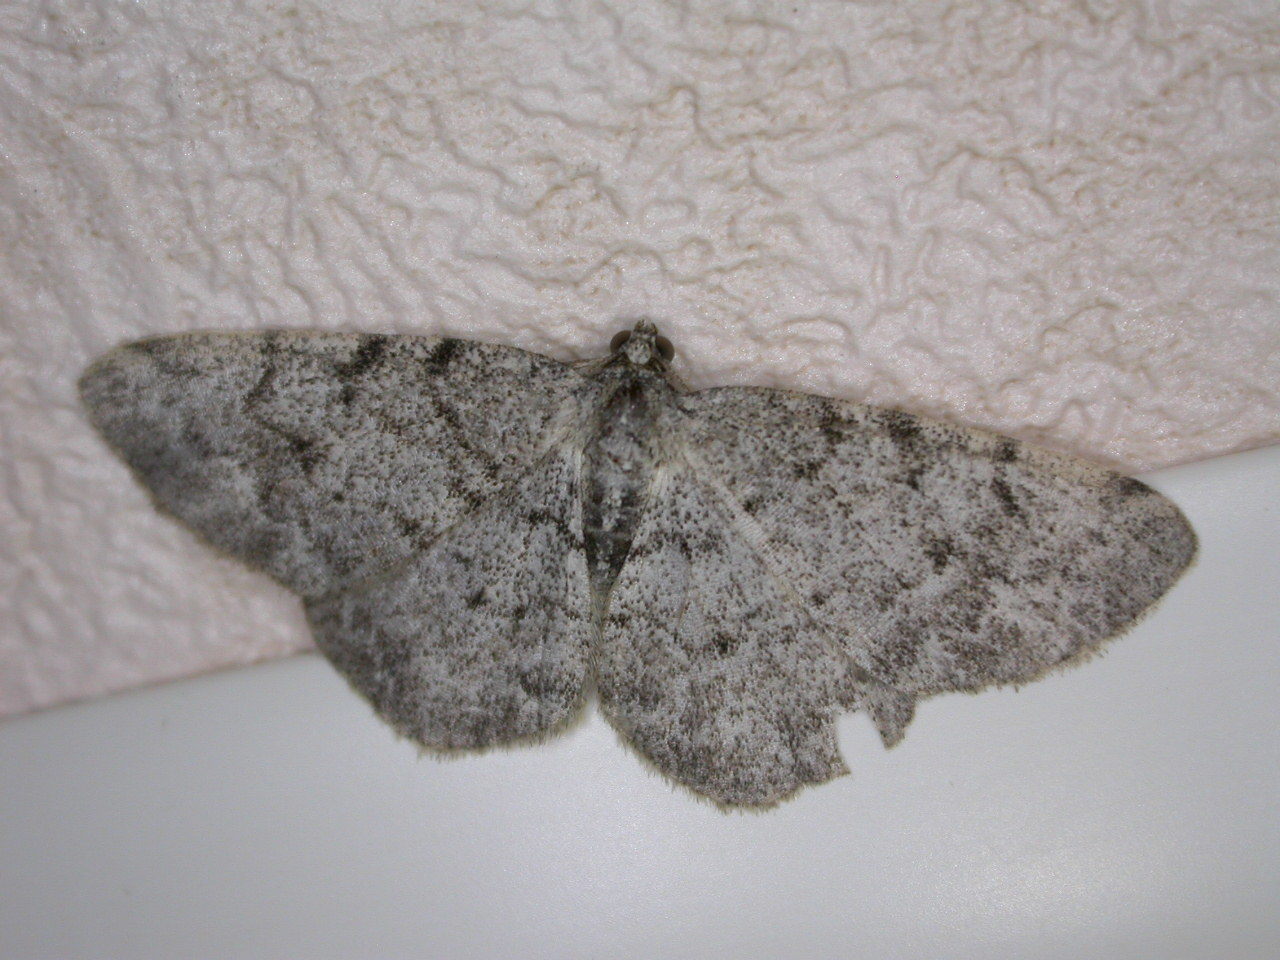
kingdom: Animalia
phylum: Arthropoda
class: Insecta
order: Lepidoptera
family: Geometridae
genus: Aethalura
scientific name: Aethalura punctulata
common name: Grey birch
